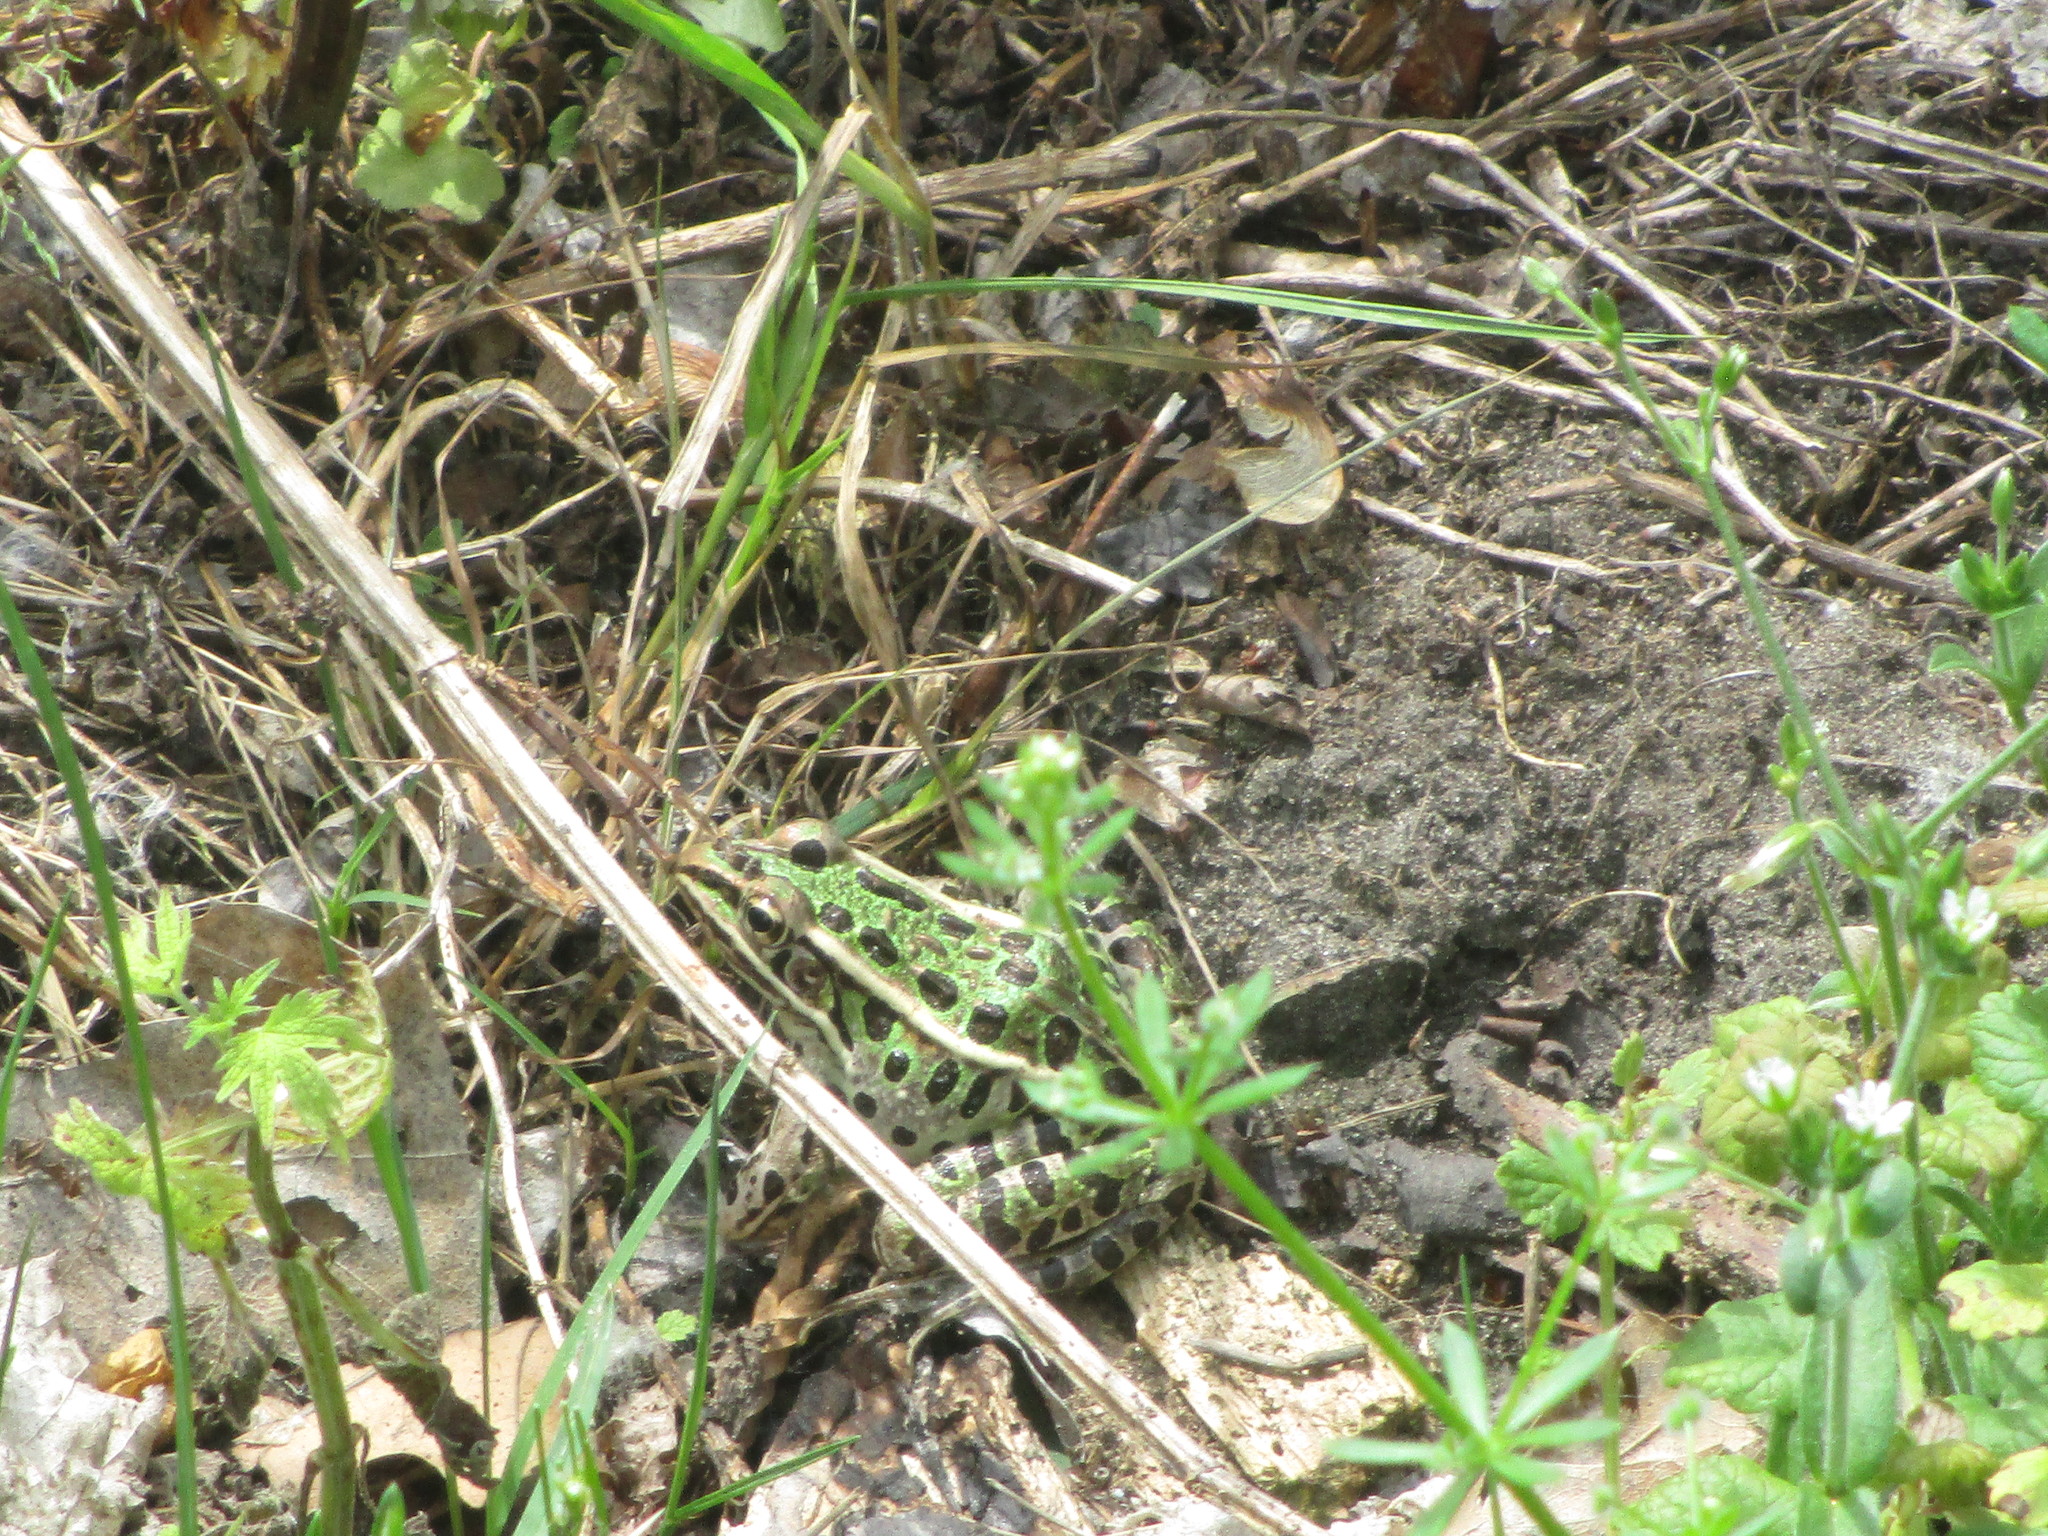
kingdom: Animalia
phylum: Chordata
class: Amphibia
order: Anura
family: Ranidae
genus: Lithobates
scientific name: Lithobates pipiens
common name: Northern leopard frog
